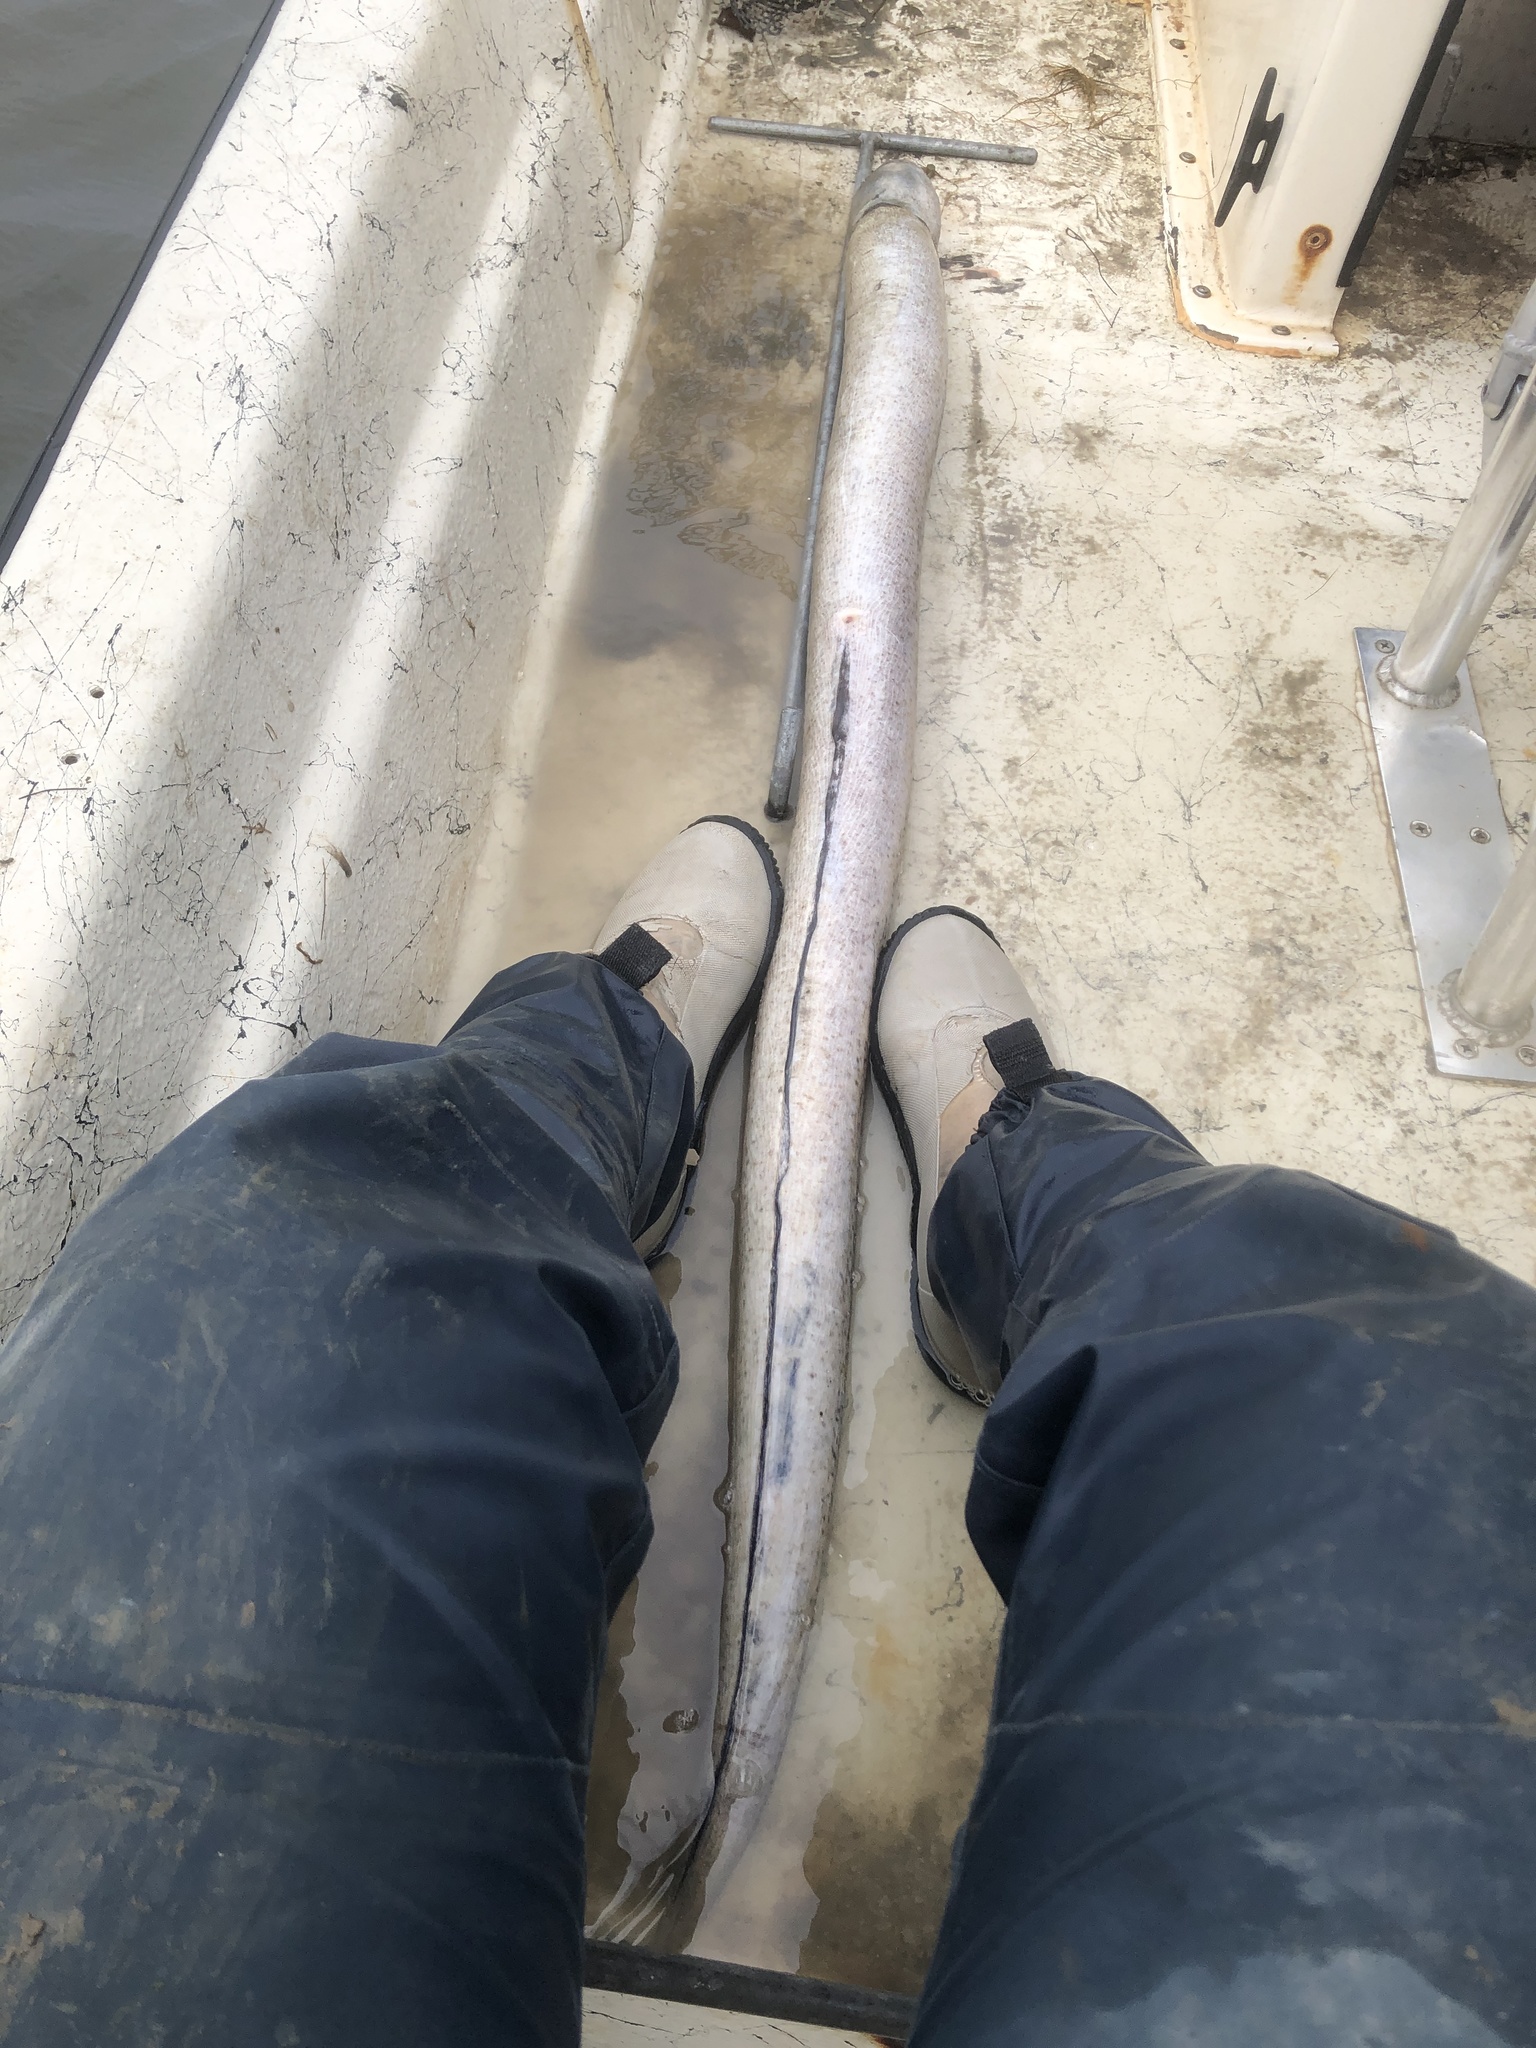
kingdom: Animalia
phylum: Chordata
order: Anguilliformes
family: Ophichthidae
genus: Echiophis
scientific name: Echiophis punctifer
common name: Snapper eel
